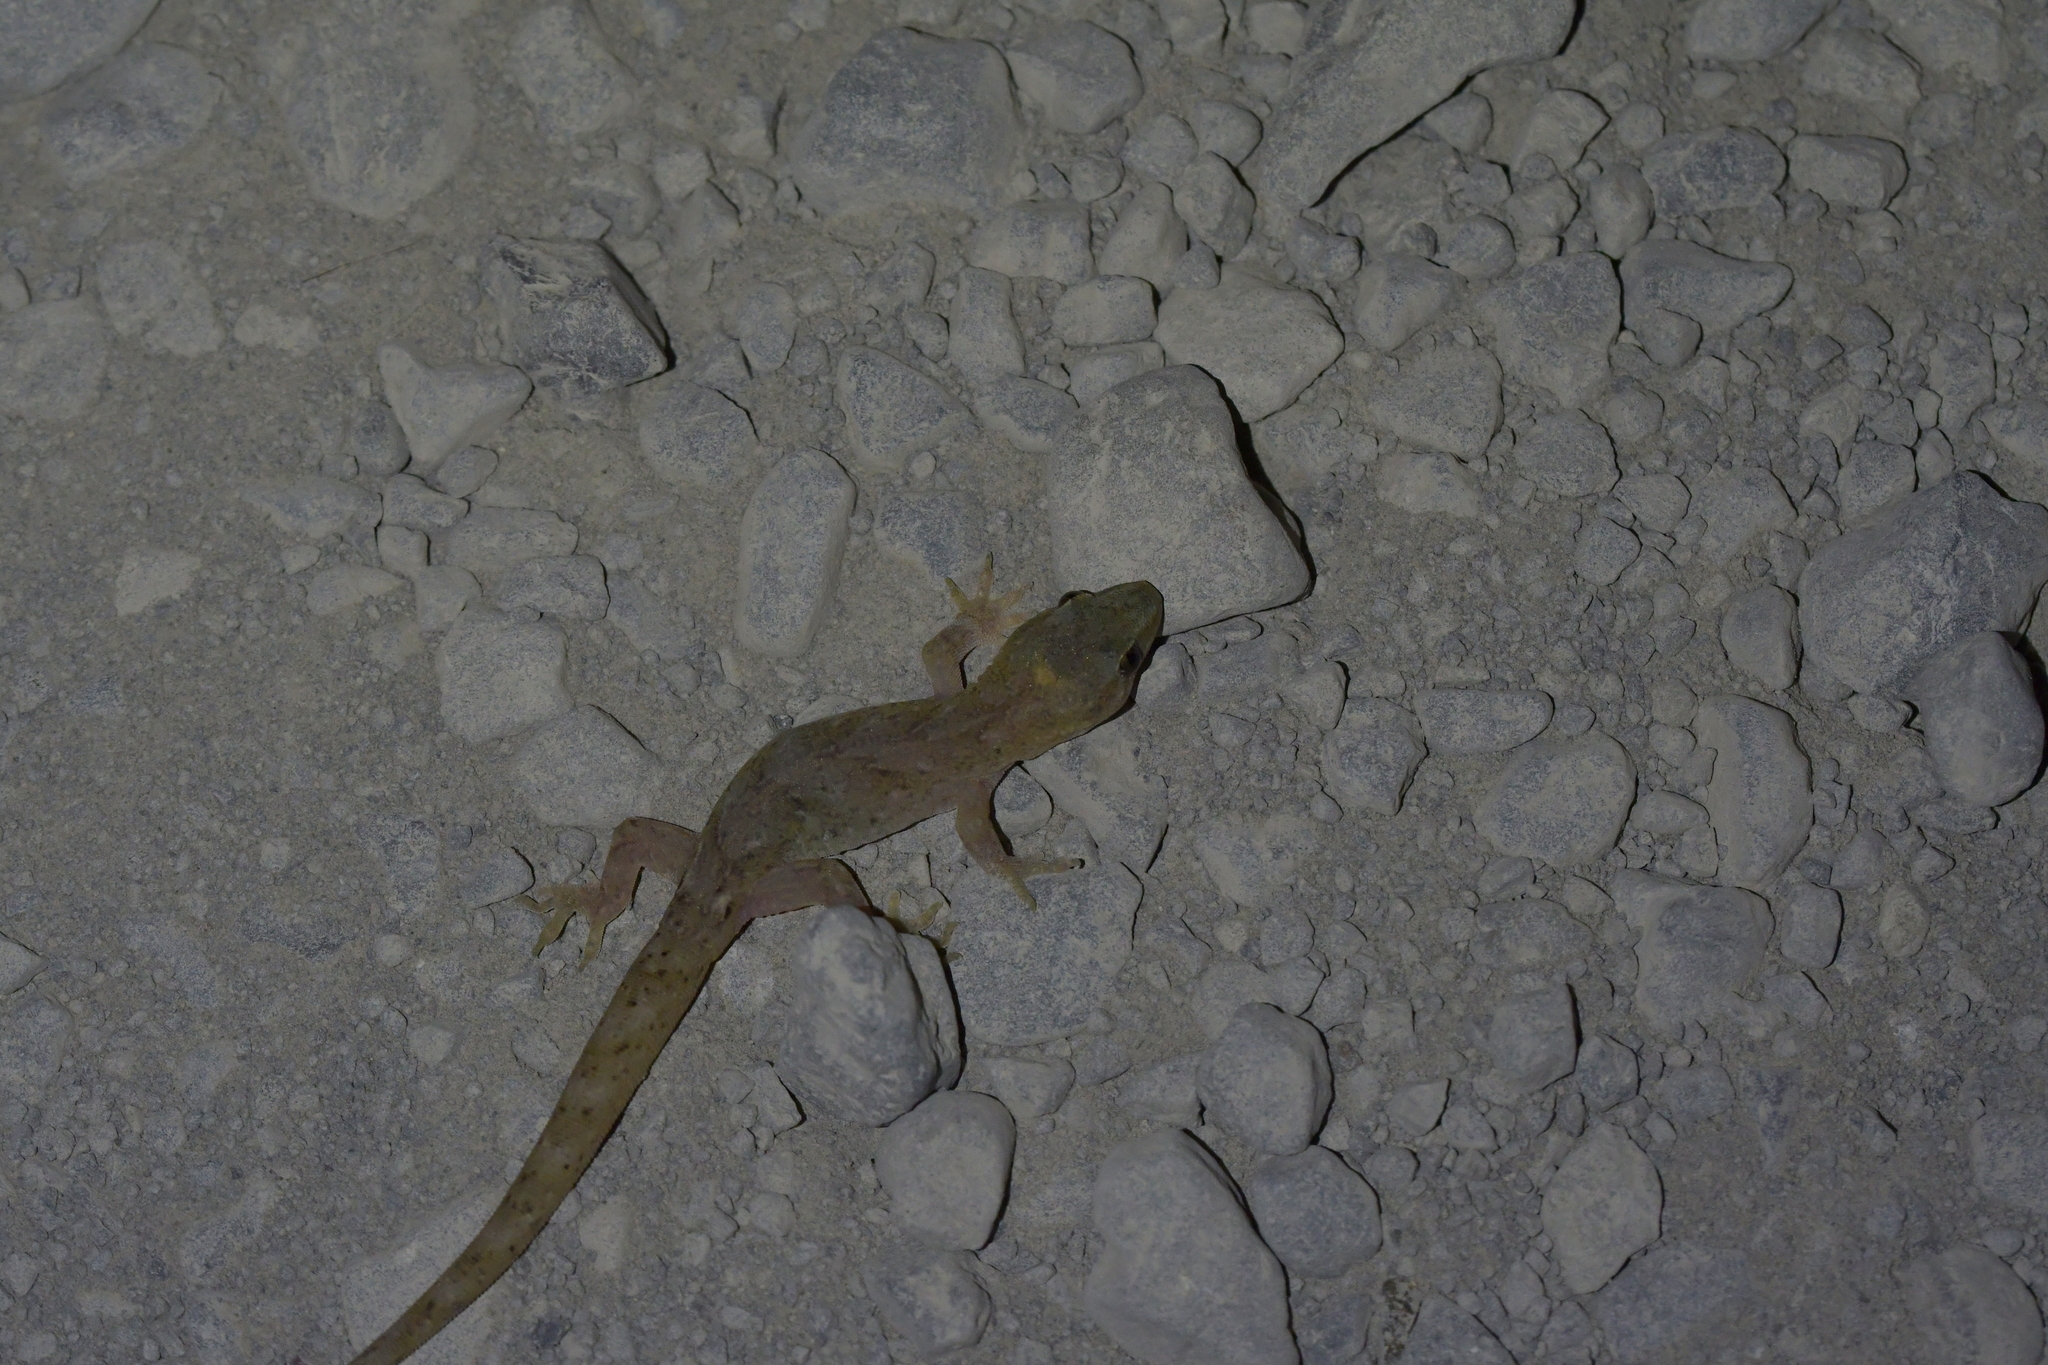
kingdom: Animalia
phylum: Chordata
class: Squamata
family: Diplodactylidae
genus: Woodworthia
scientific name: Woodworthia maculata
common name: Raukawa gecko
